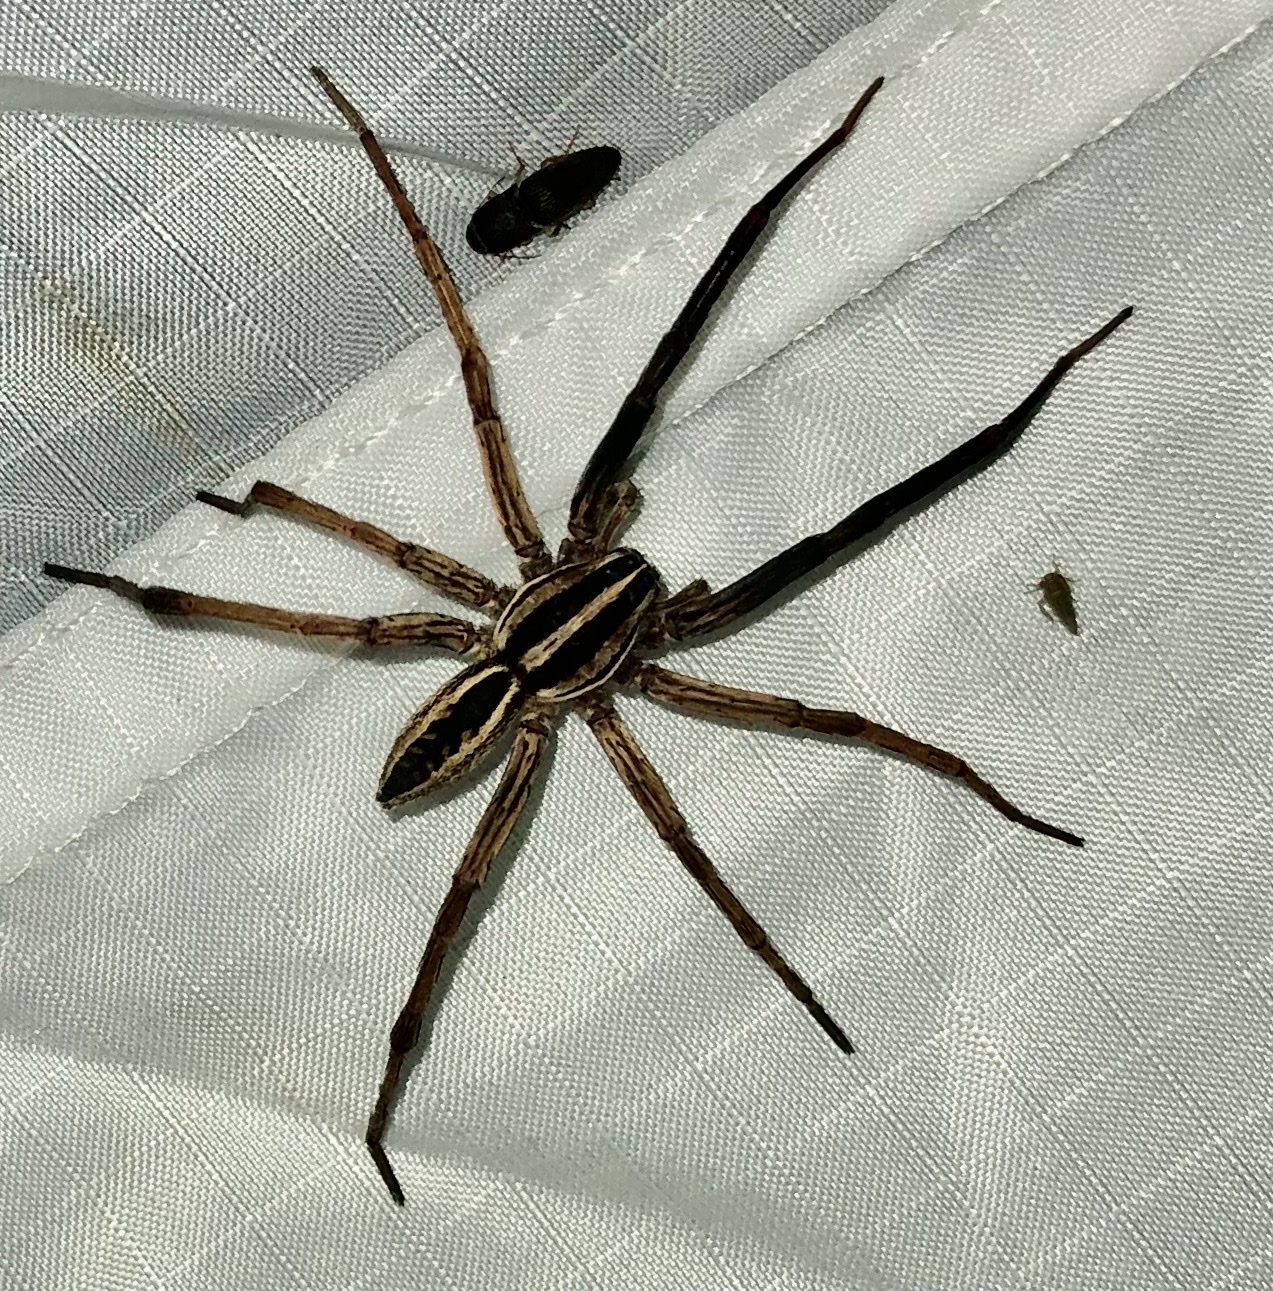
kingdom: Animalia
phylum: Arthropoda
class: Arachnida
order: Araneae
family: Lycosidae
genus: Rabidosa
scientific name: Rabidosa rabida
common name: Rabid wolf spider
